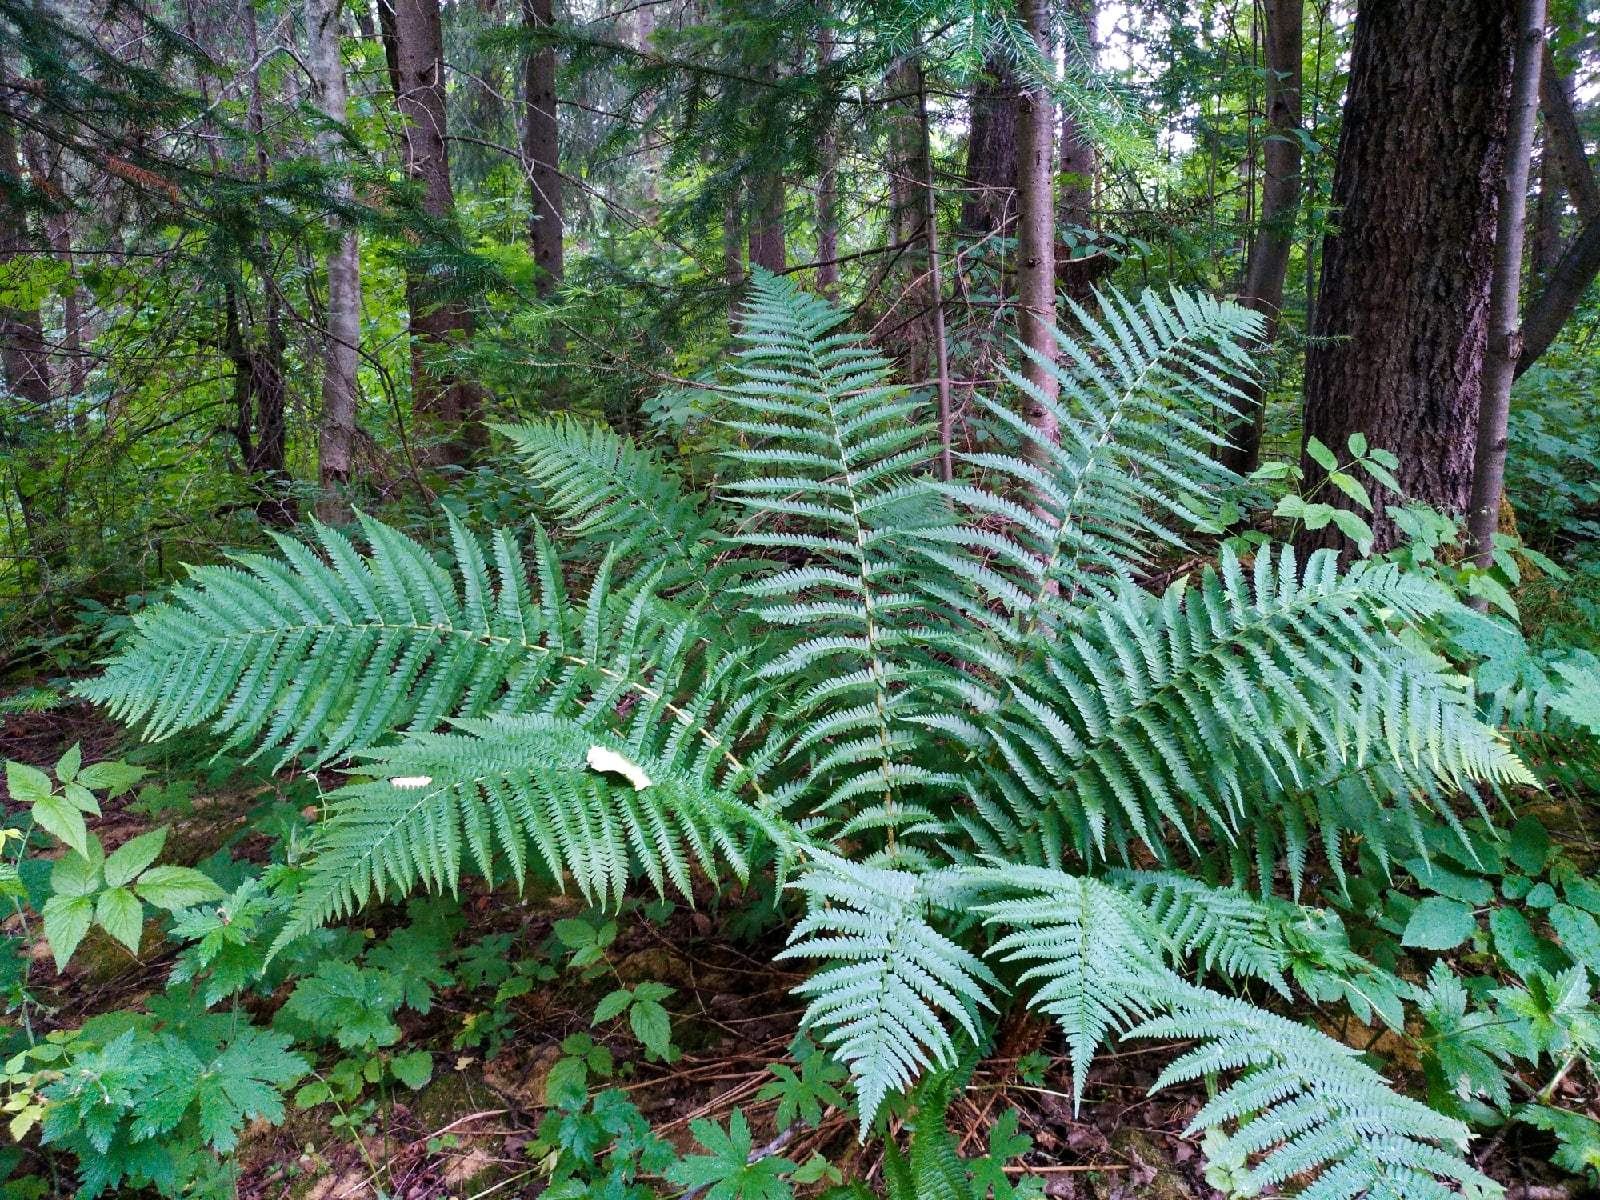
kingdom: Plantae
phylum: Tracheophyta
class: Polypodiopsida
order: Polypodiales
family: Dryopteridaceae
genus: Dryopteris
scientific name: Dryopteris filix-mas
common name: Male fern
